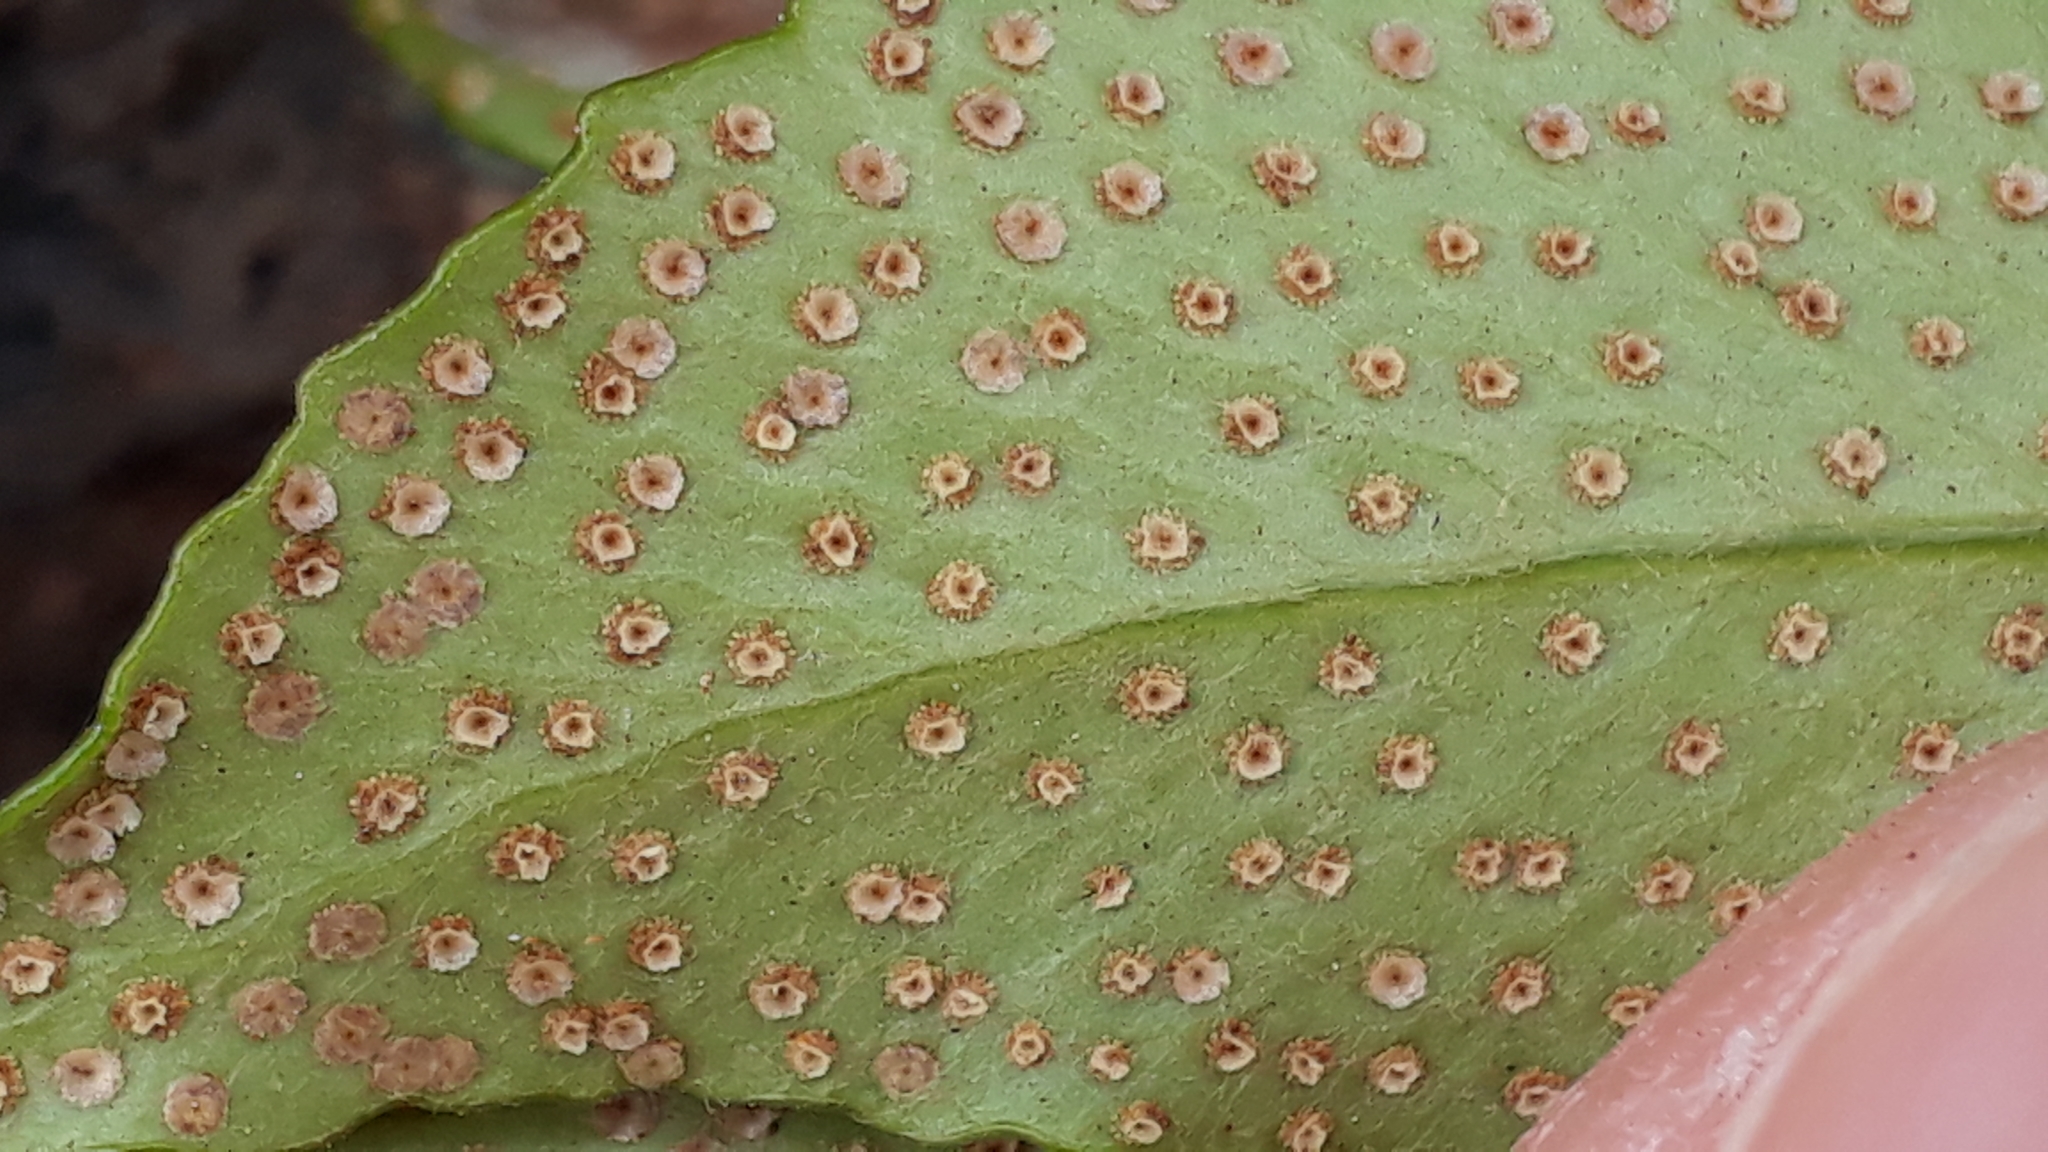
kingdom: Plantae
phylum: Tracheophyta
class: Polypodiopsida
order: Polypodiales
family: Dryopteridaceae
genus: Cyrtomium
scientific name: Cyrtomium falcatum
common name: House holly-fern
